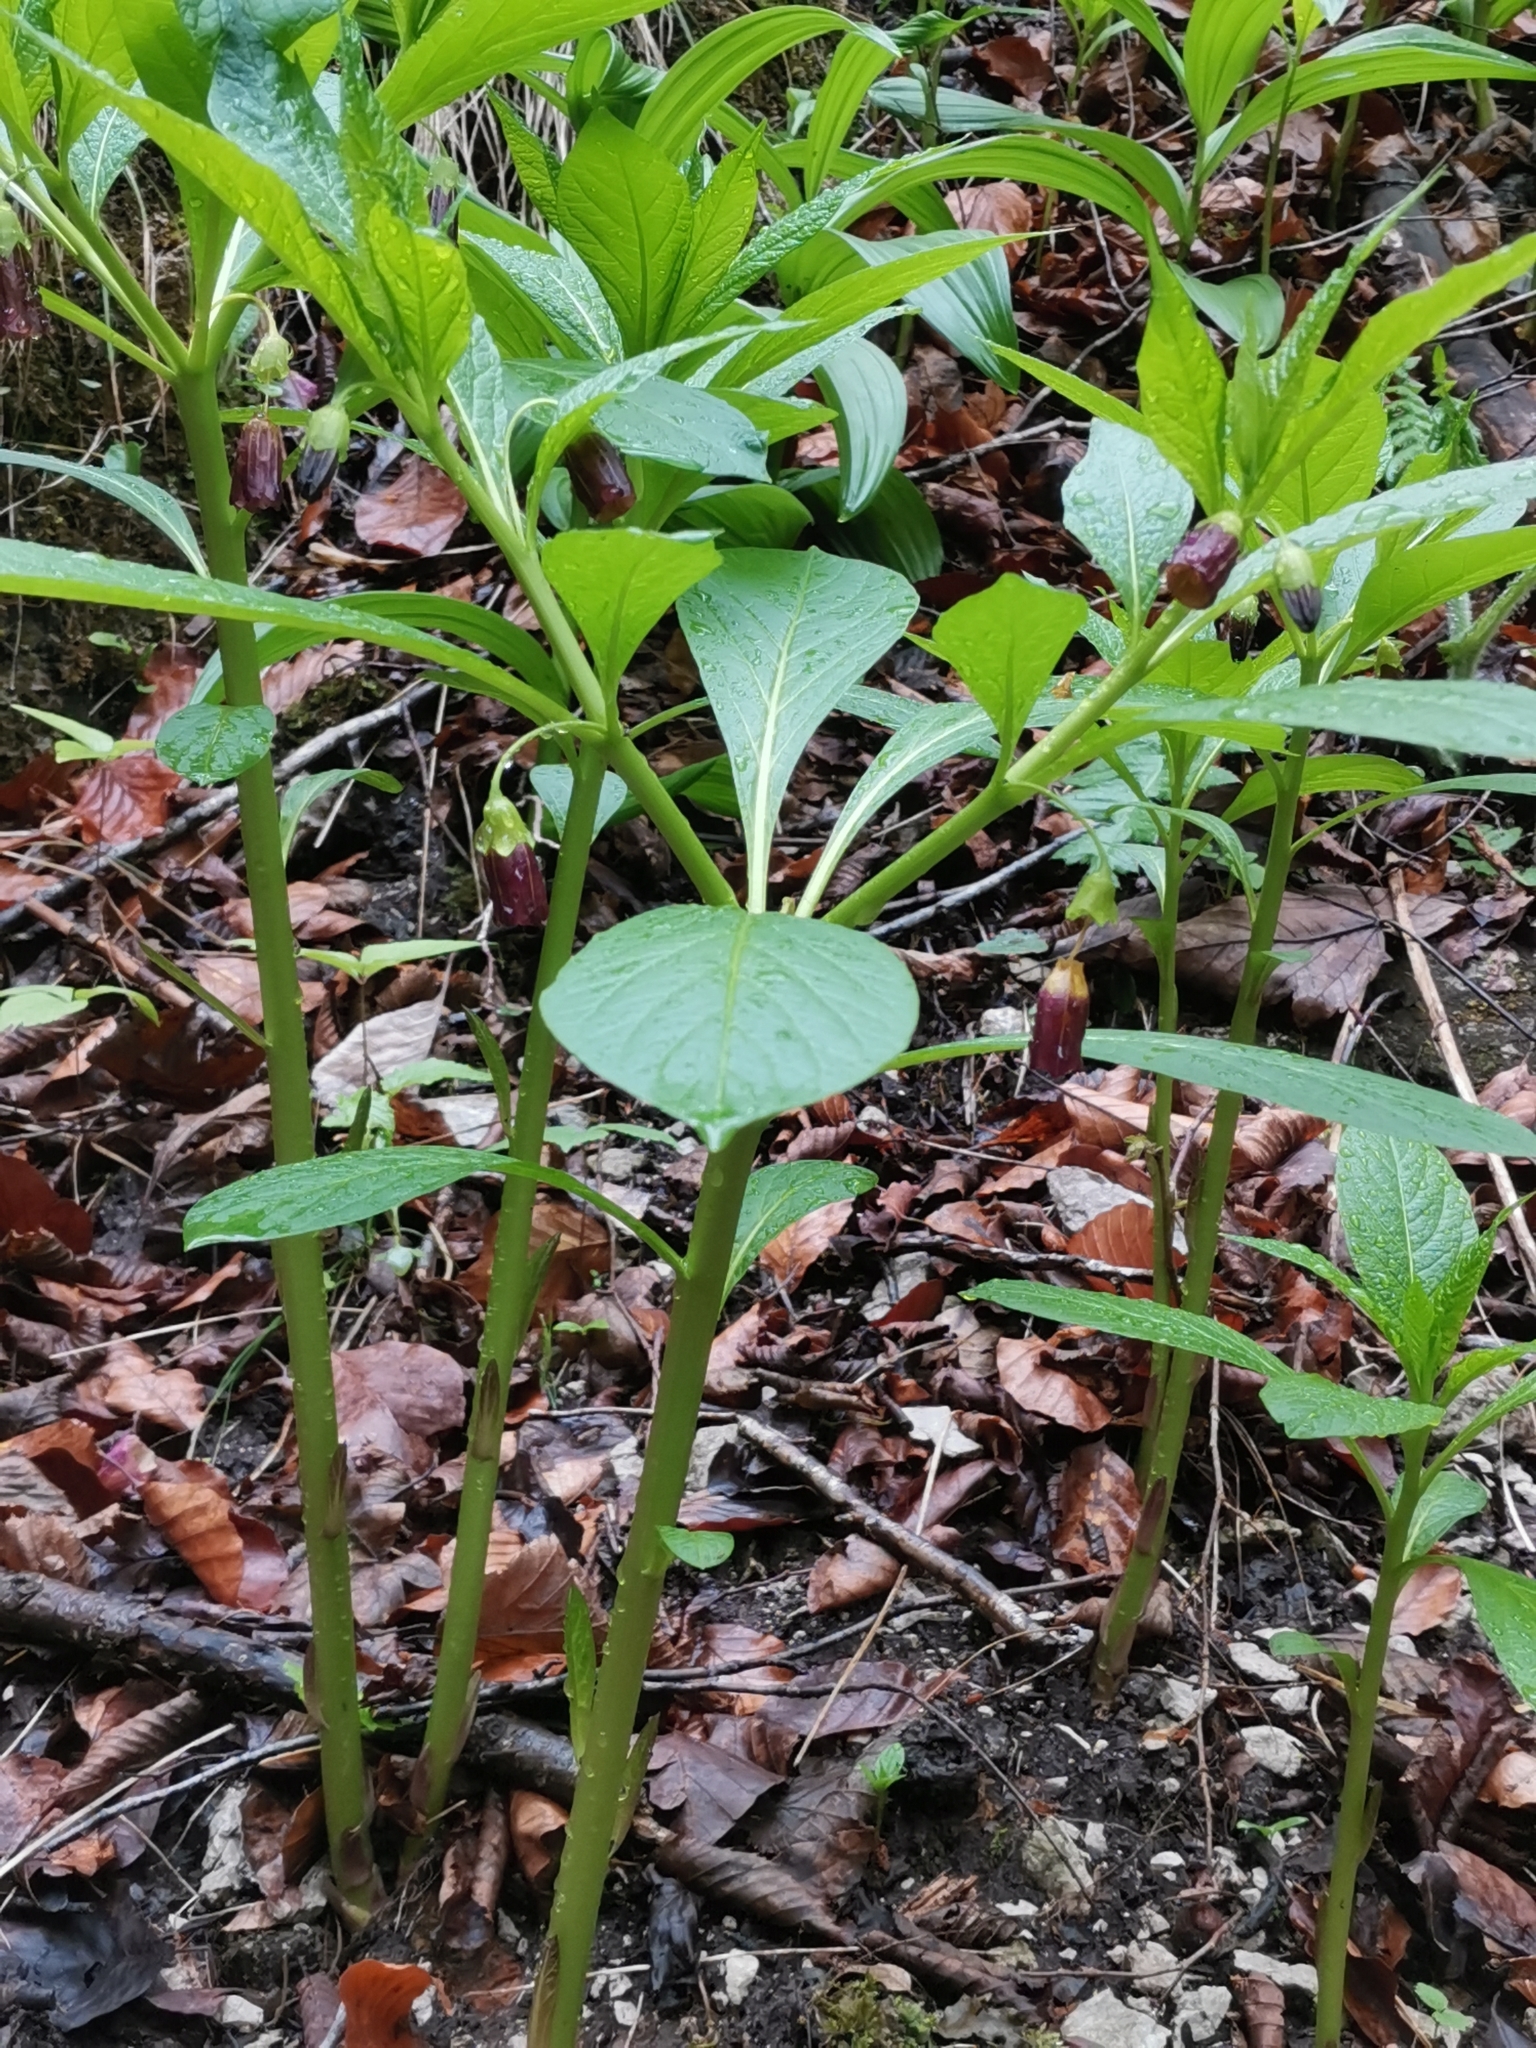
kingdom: Plantae
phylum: Tracheophyta
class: Magnoliopsida
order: Solanales
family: Solanaceae
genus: Scopolia
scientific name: Scopolia carniolica
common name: Scopolia
